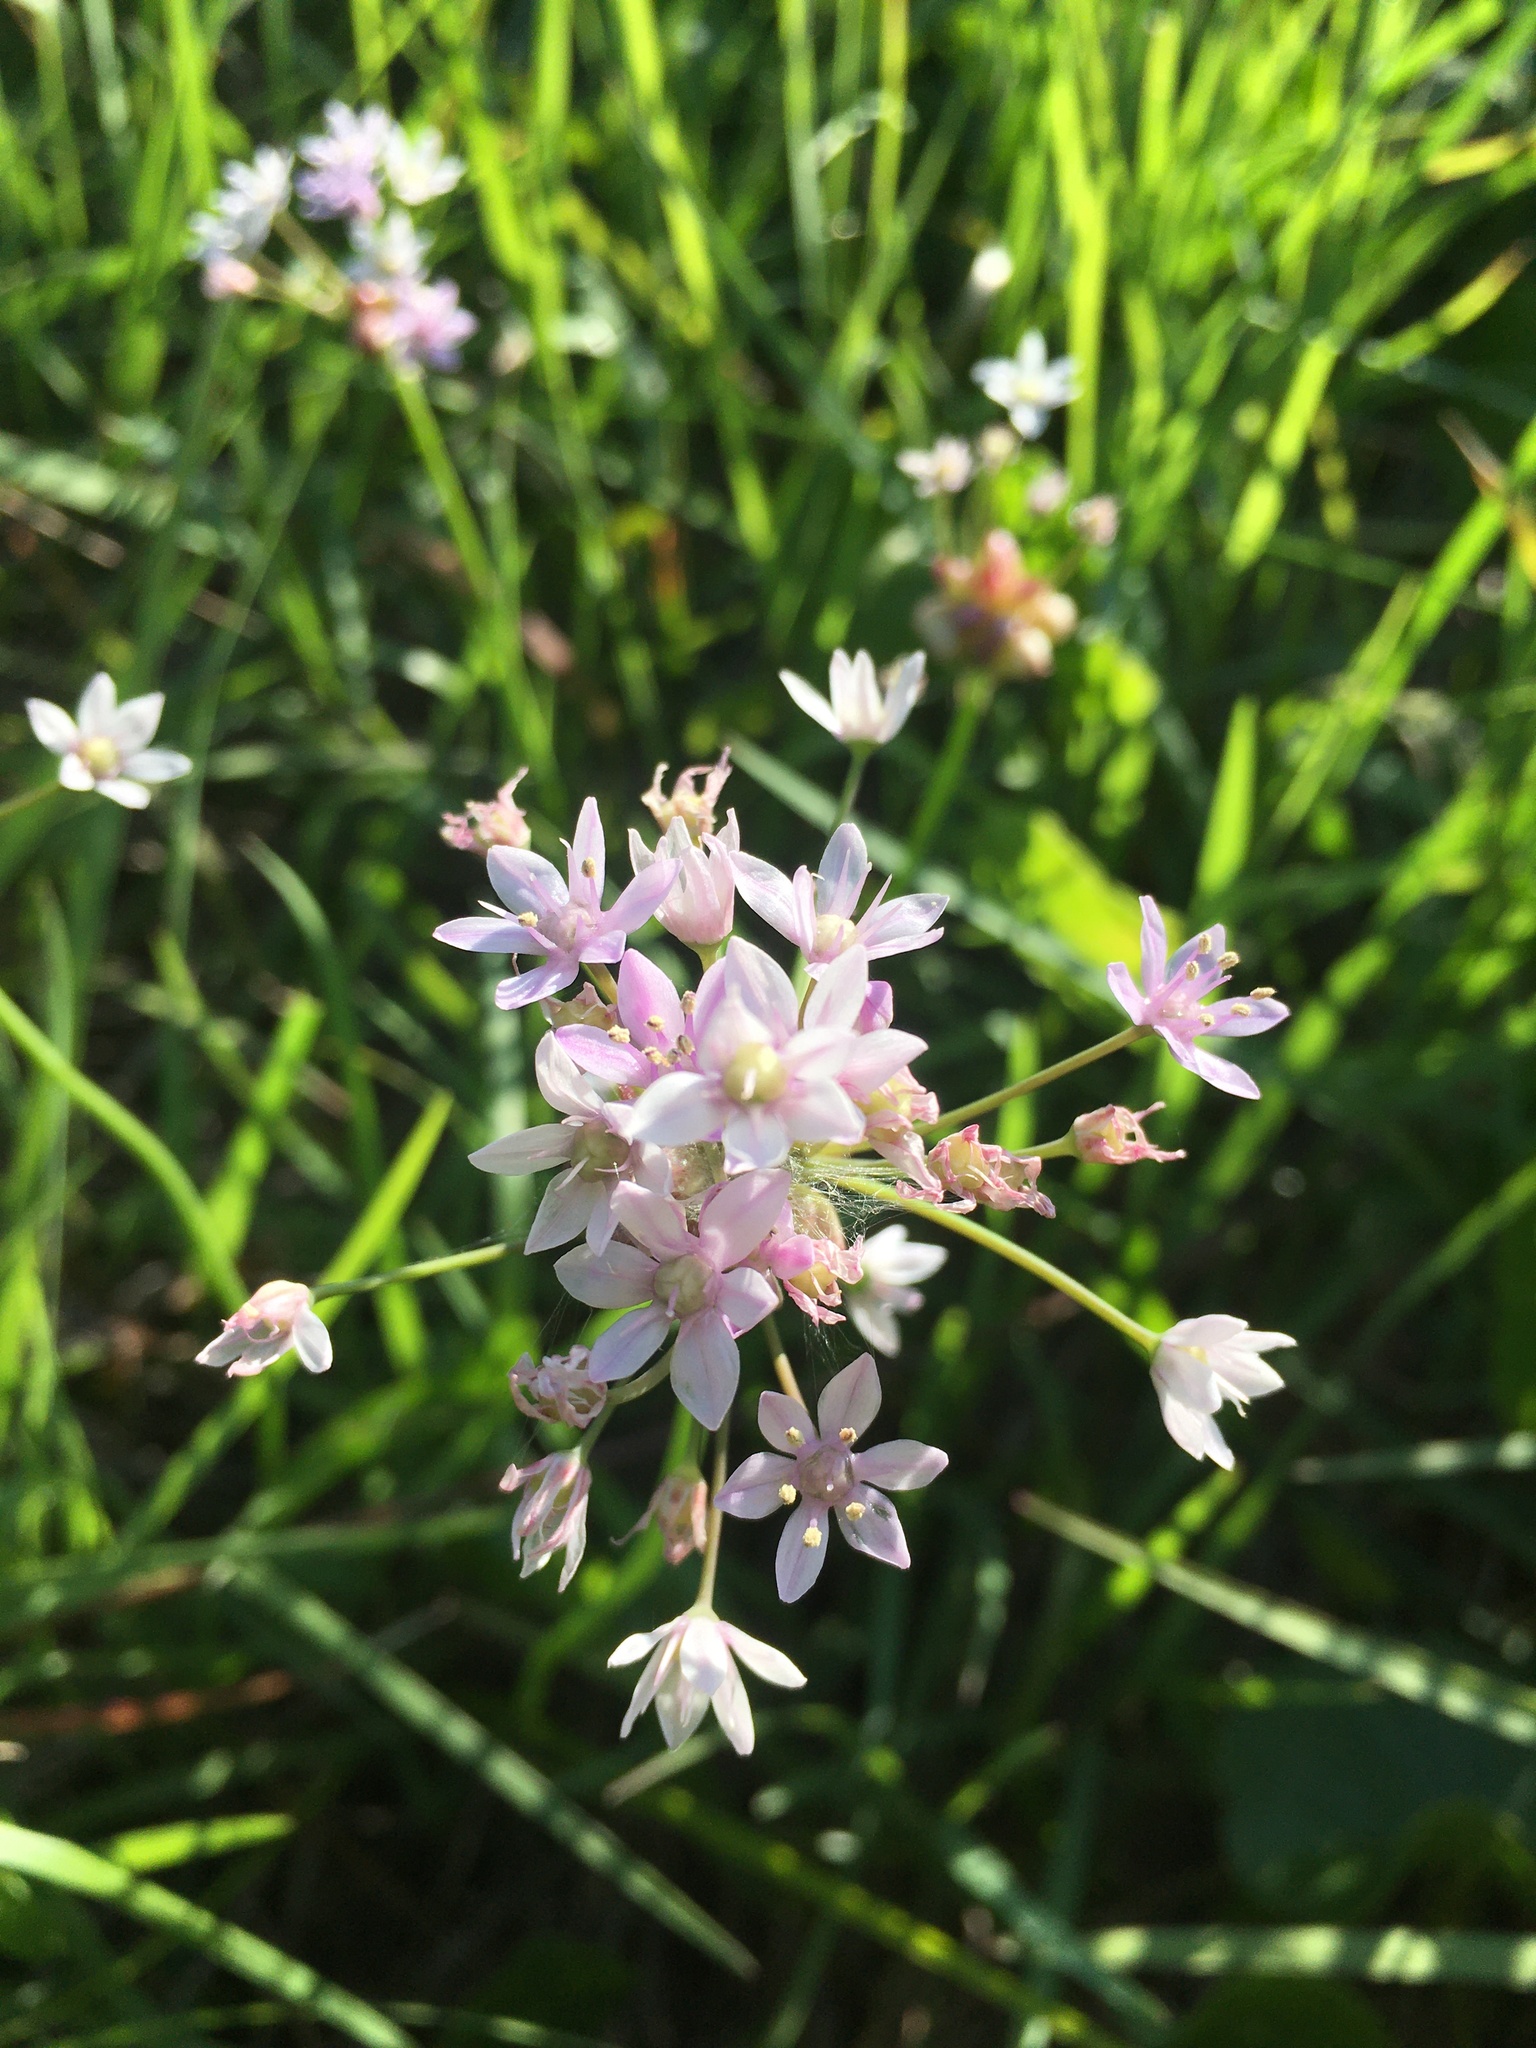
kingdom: Plantae
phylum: Tracheophyta
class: Liliopsida
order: Asparagales
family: Amaryllidaceae
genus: Allium
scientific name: Allium canadense
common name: Meadow garlic
